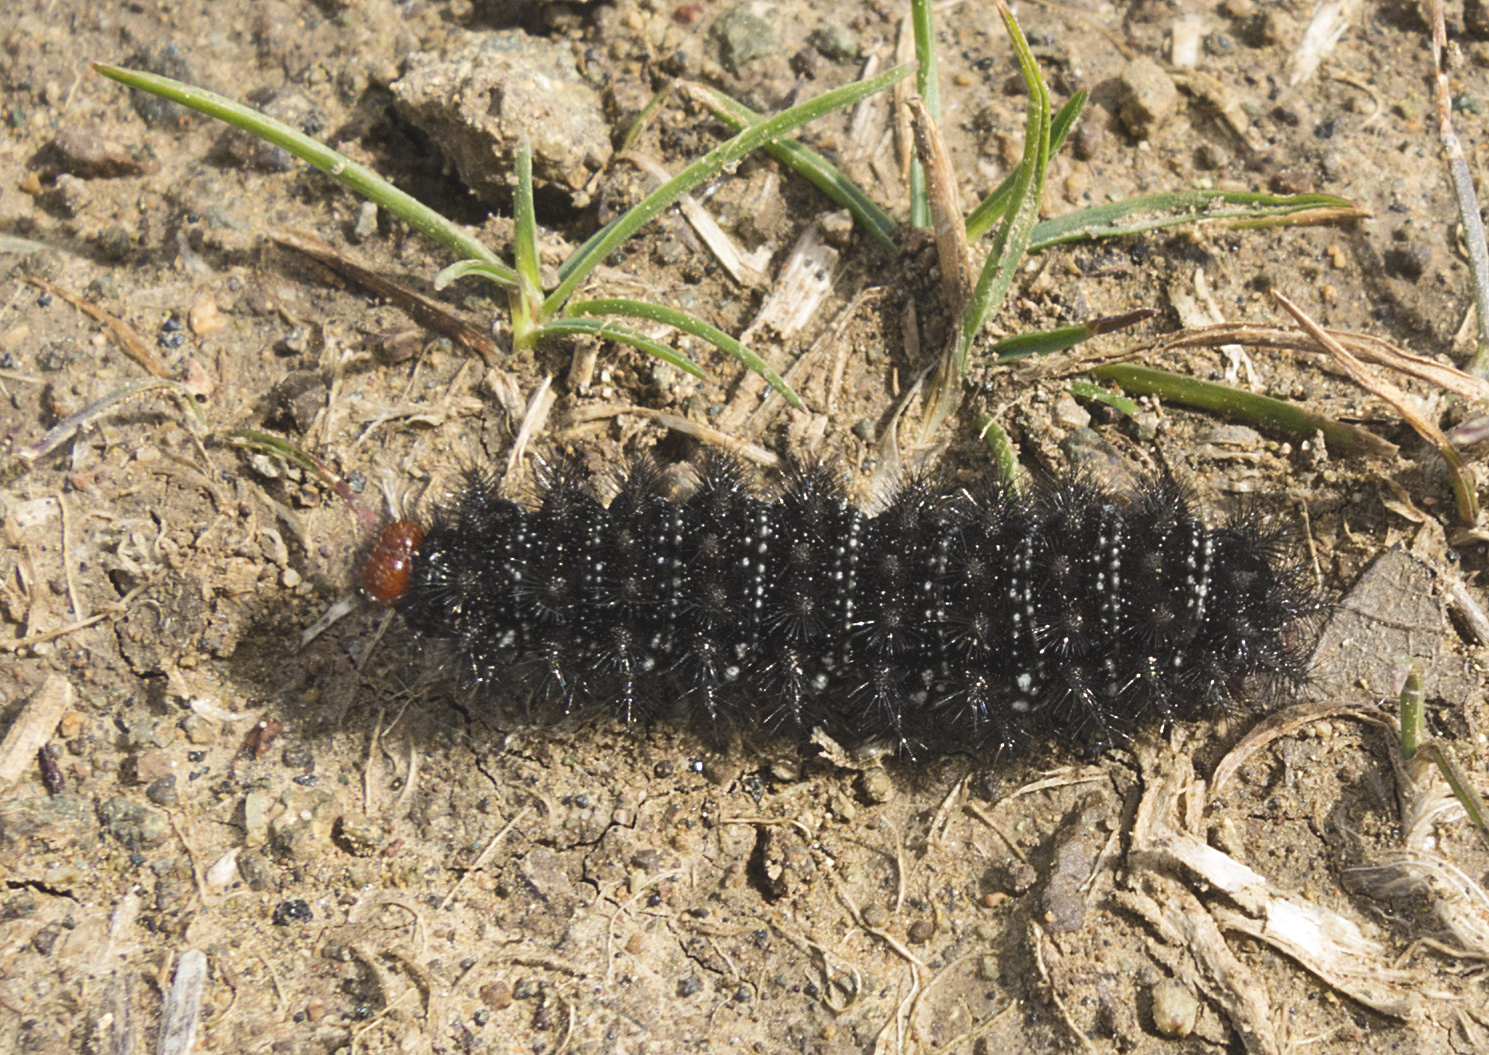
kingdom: Animalia
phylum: Arthropoda
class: Insecta
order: Lepidoptera
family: Nymphalidae
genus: Melitaea
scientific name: Melitaea cinxia
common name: Glanville fritillary
